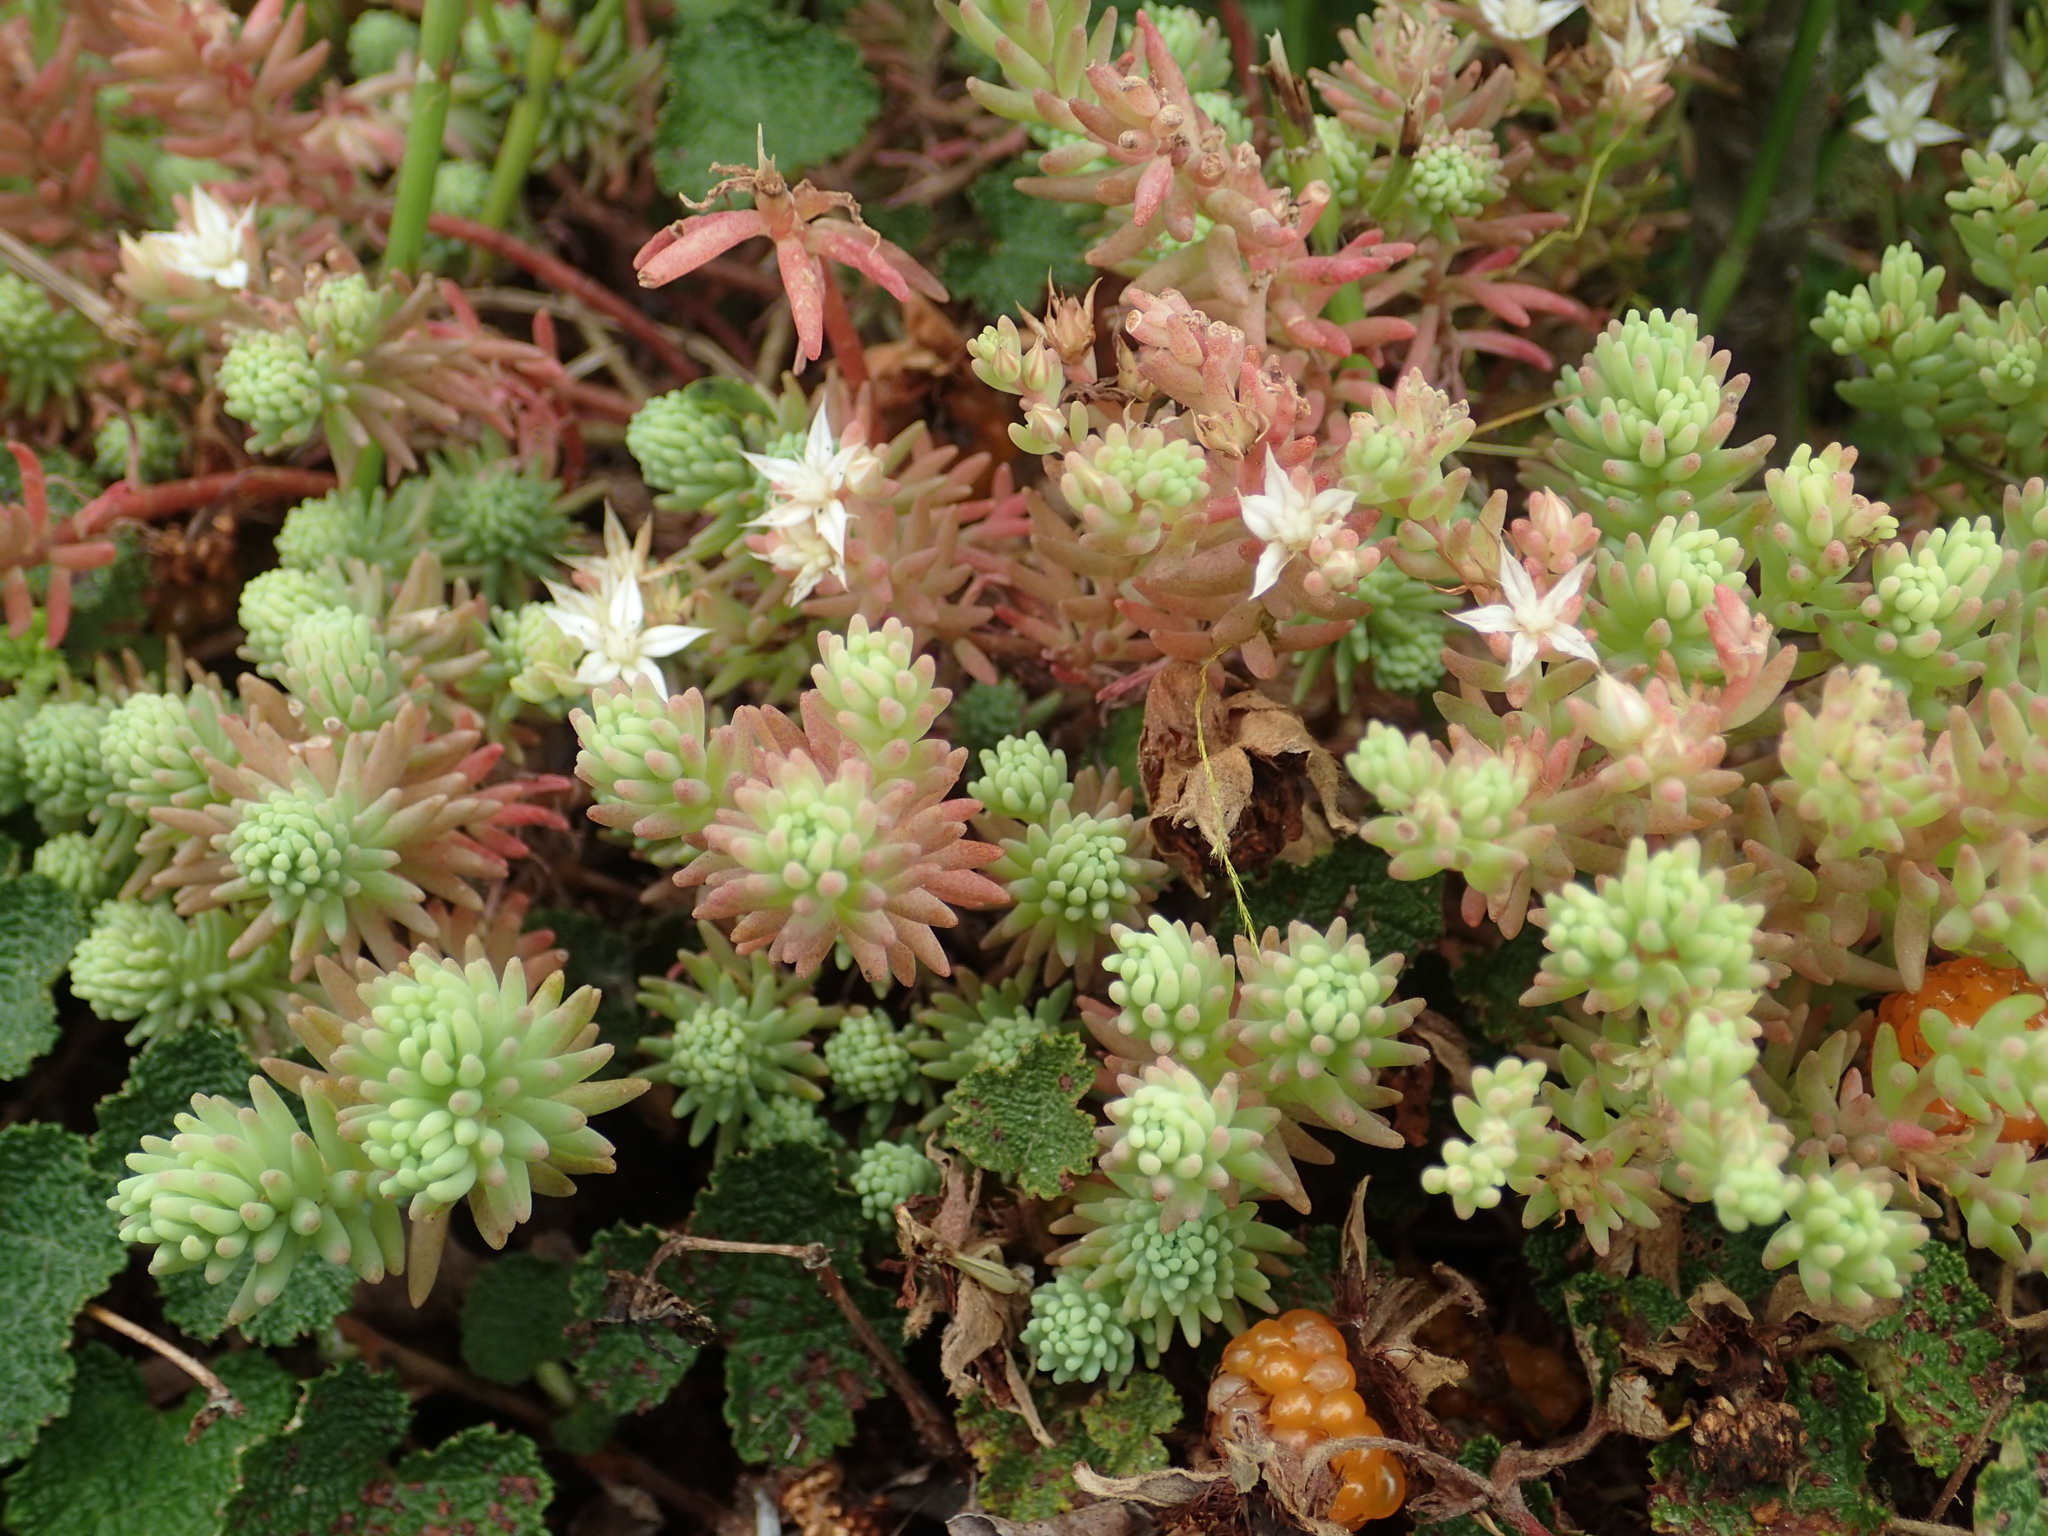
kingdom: Plantae
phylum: Tracheophyta
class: Magnoliopsida
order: Saxifragales
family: Crassulaceae
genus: Sedum
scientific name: Sedum pallidum
